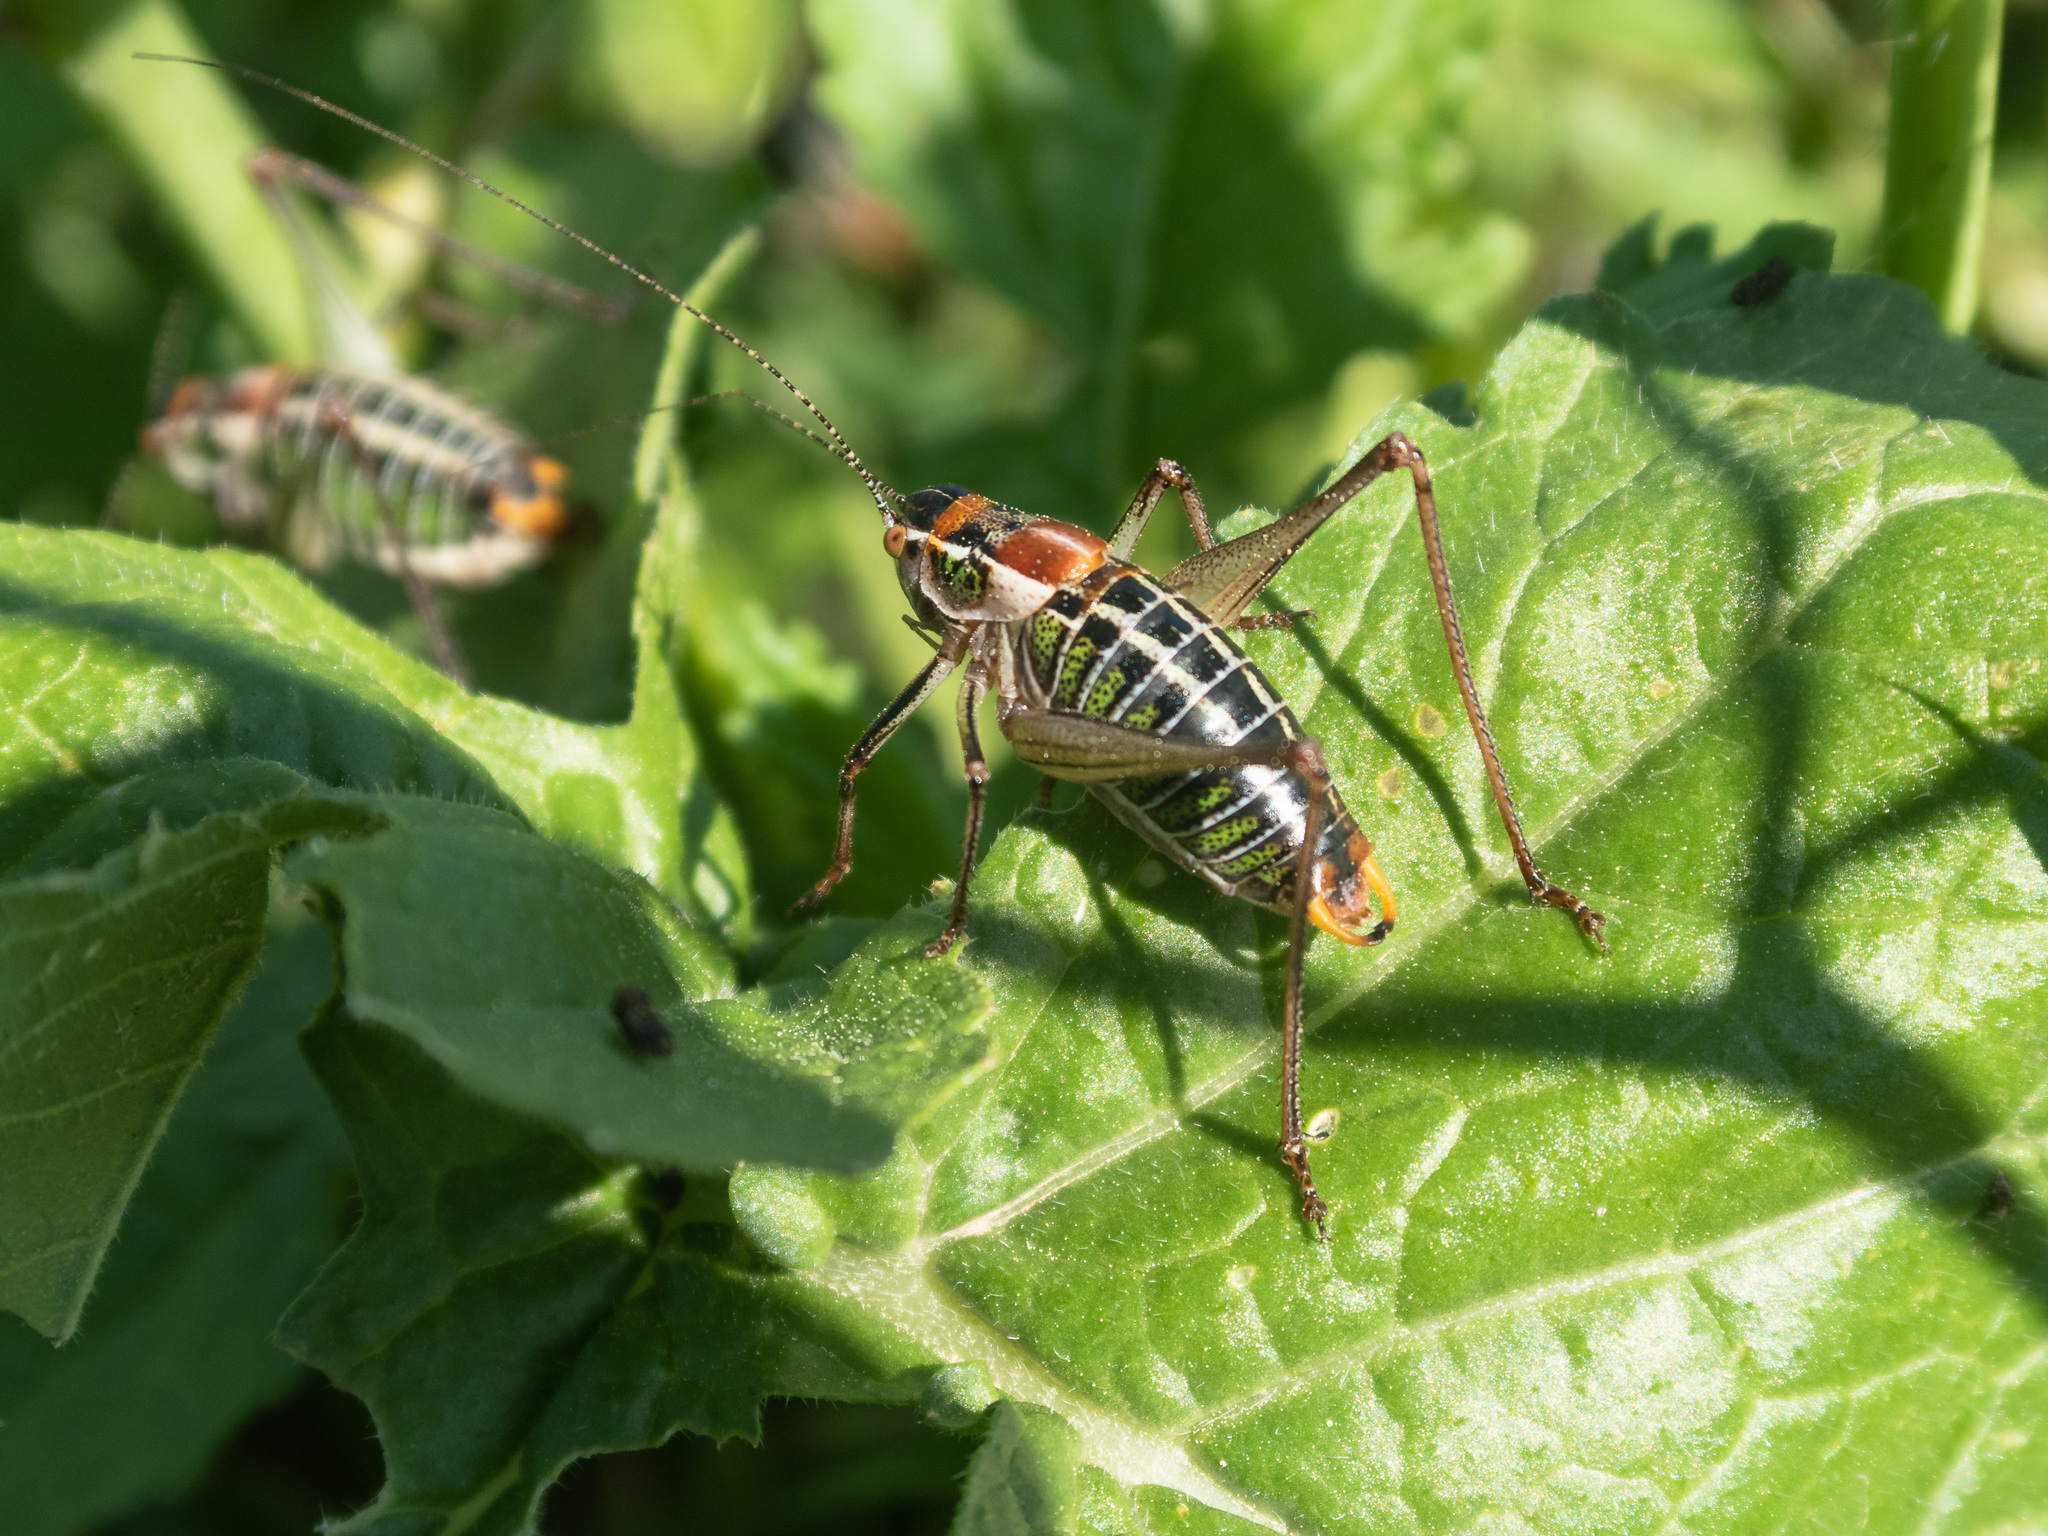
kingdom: Animalia
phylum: Arthropoda
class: Insecta
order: Orthoptera
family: Tettigoniidae
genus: Poecilimon
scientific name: Poecilimon mytilenensis
